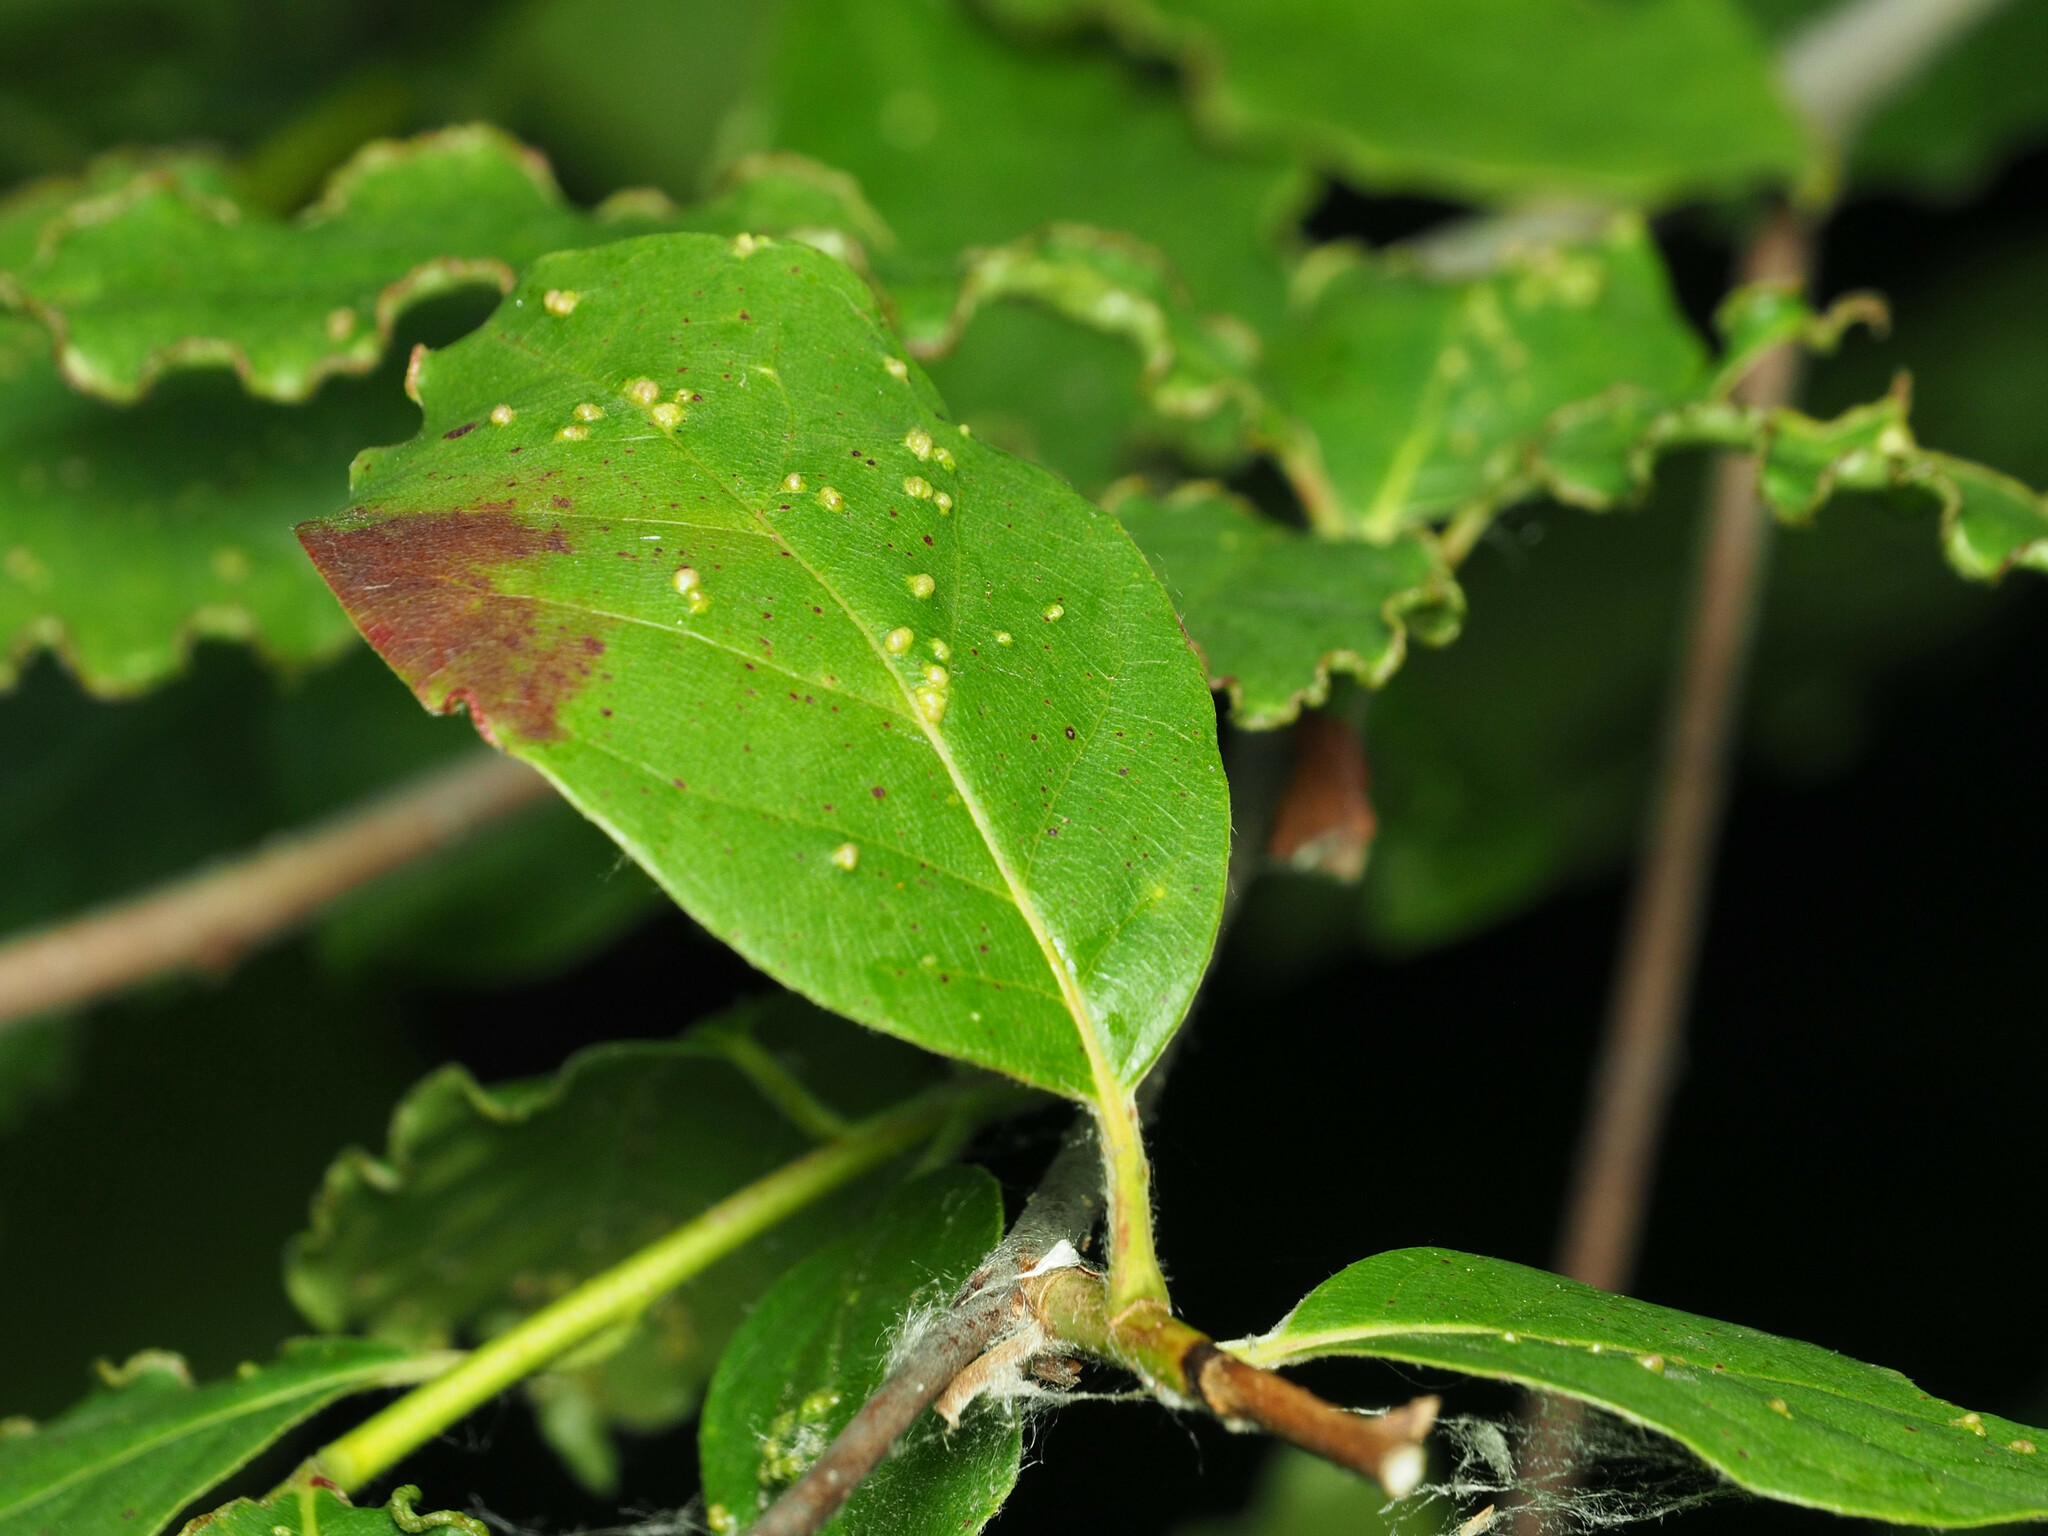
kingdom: Animalia
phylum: Arthropoda
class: Arachnida
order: Trombidiformes
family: Eriophyidae
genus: Aceria
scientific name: Aceria
